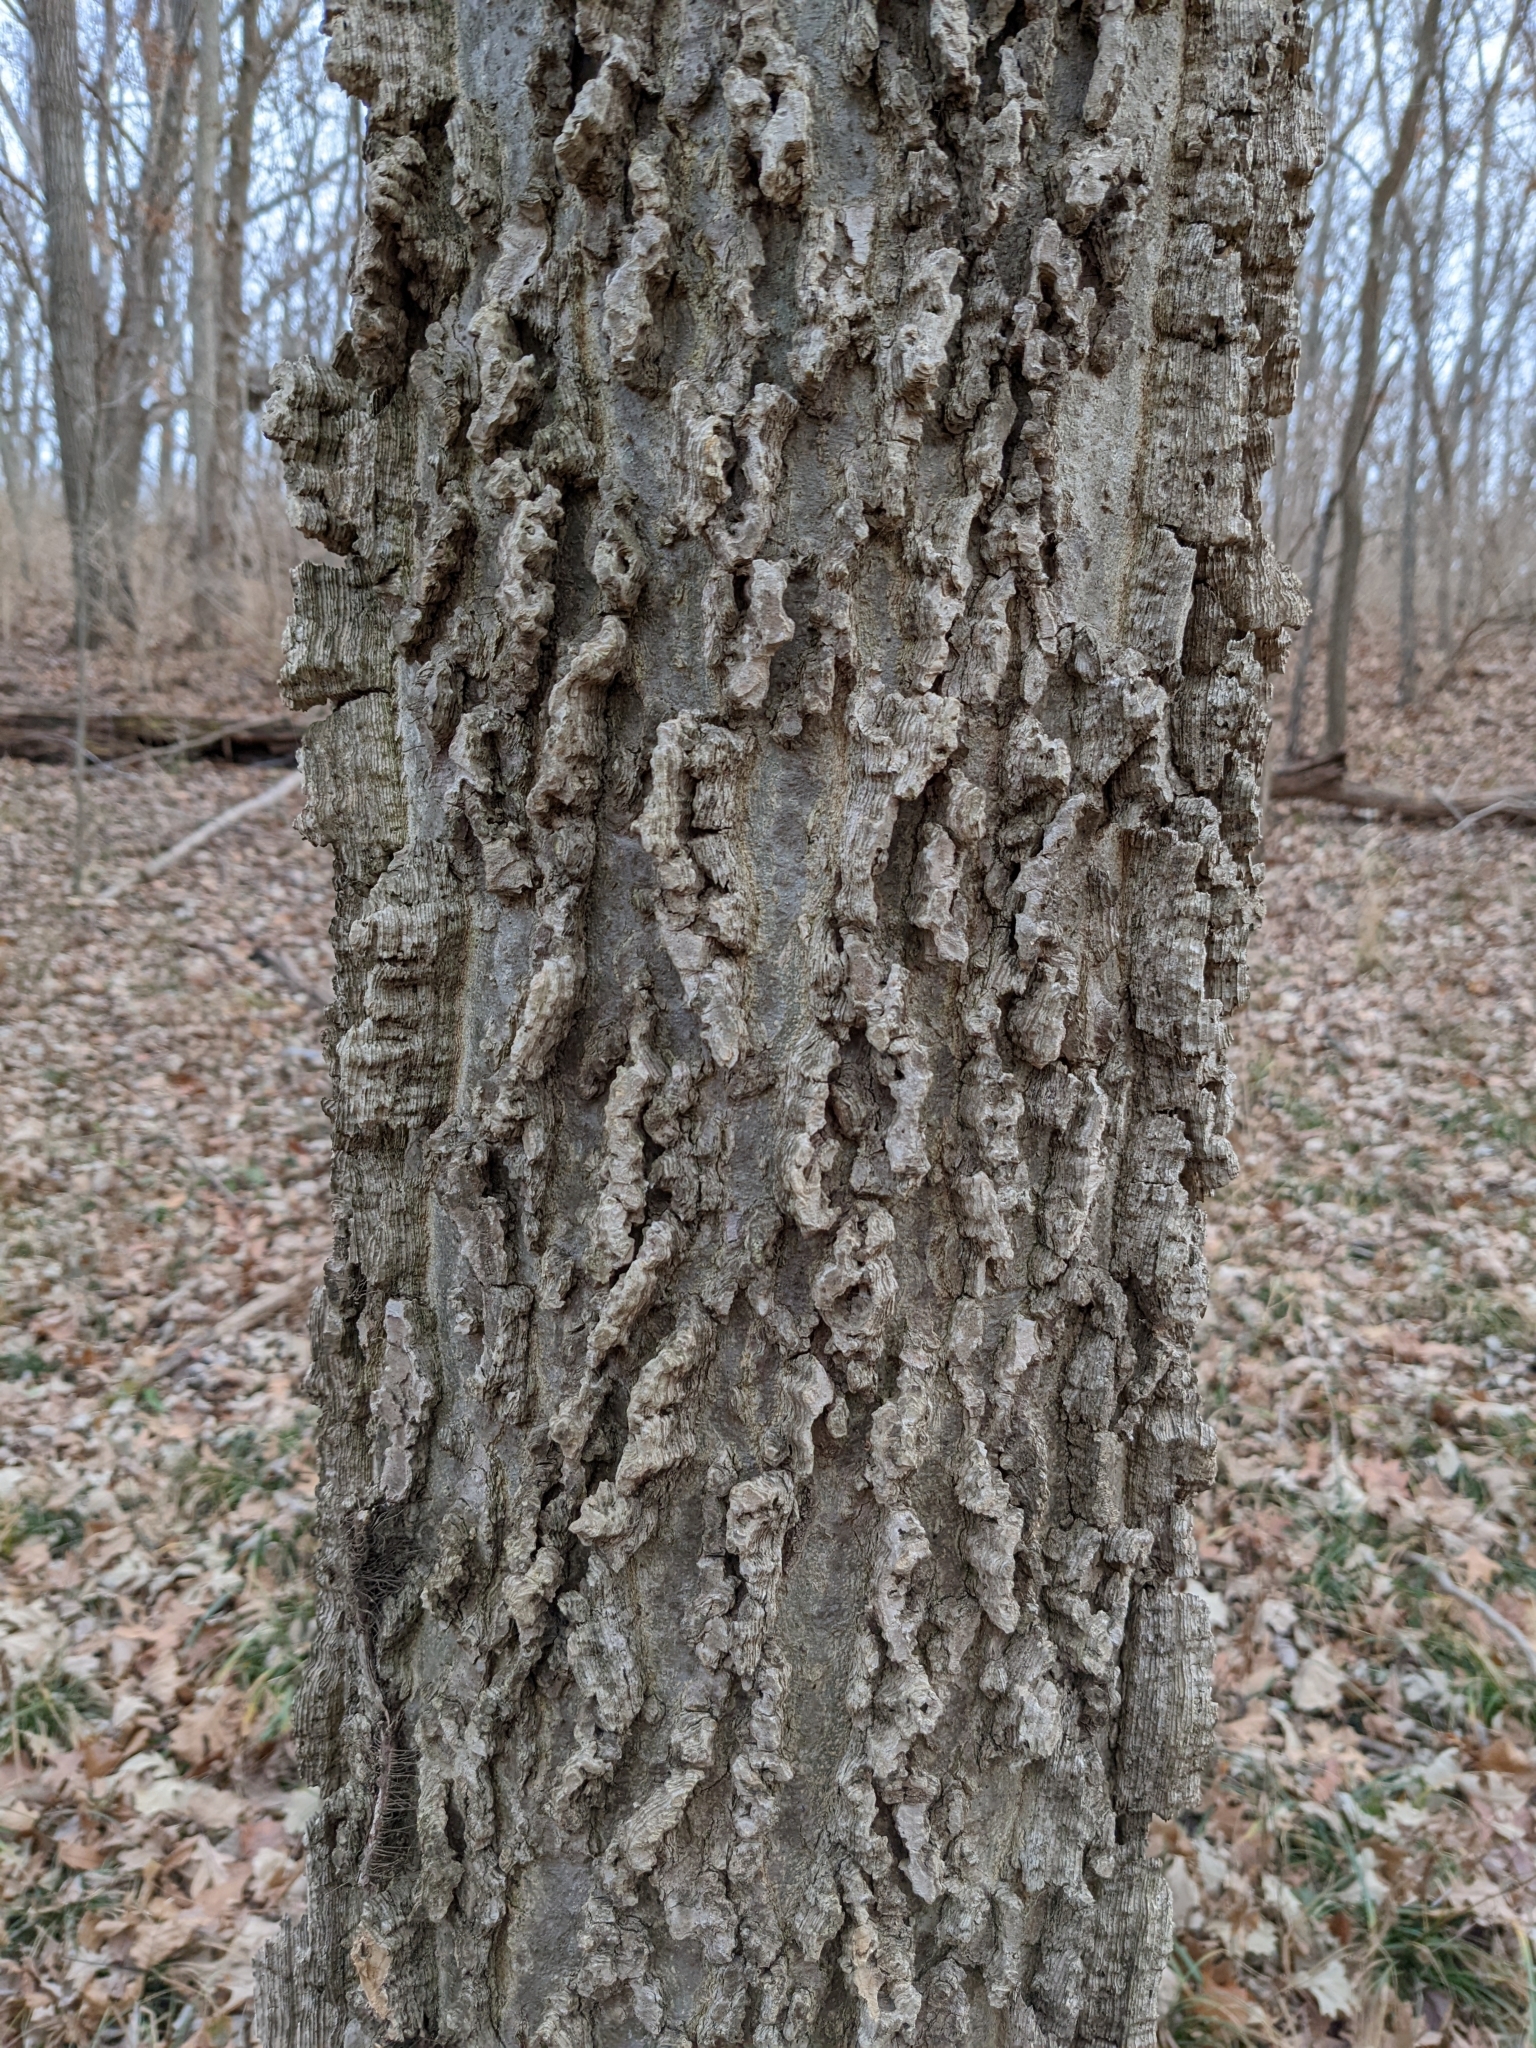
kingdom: Plantae
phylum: Tracheophyta
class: Magnoliopsida
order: Rosales
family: Cannabaceae
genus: Celtis
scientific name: Celtis occidentalis
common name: Common hackberry
